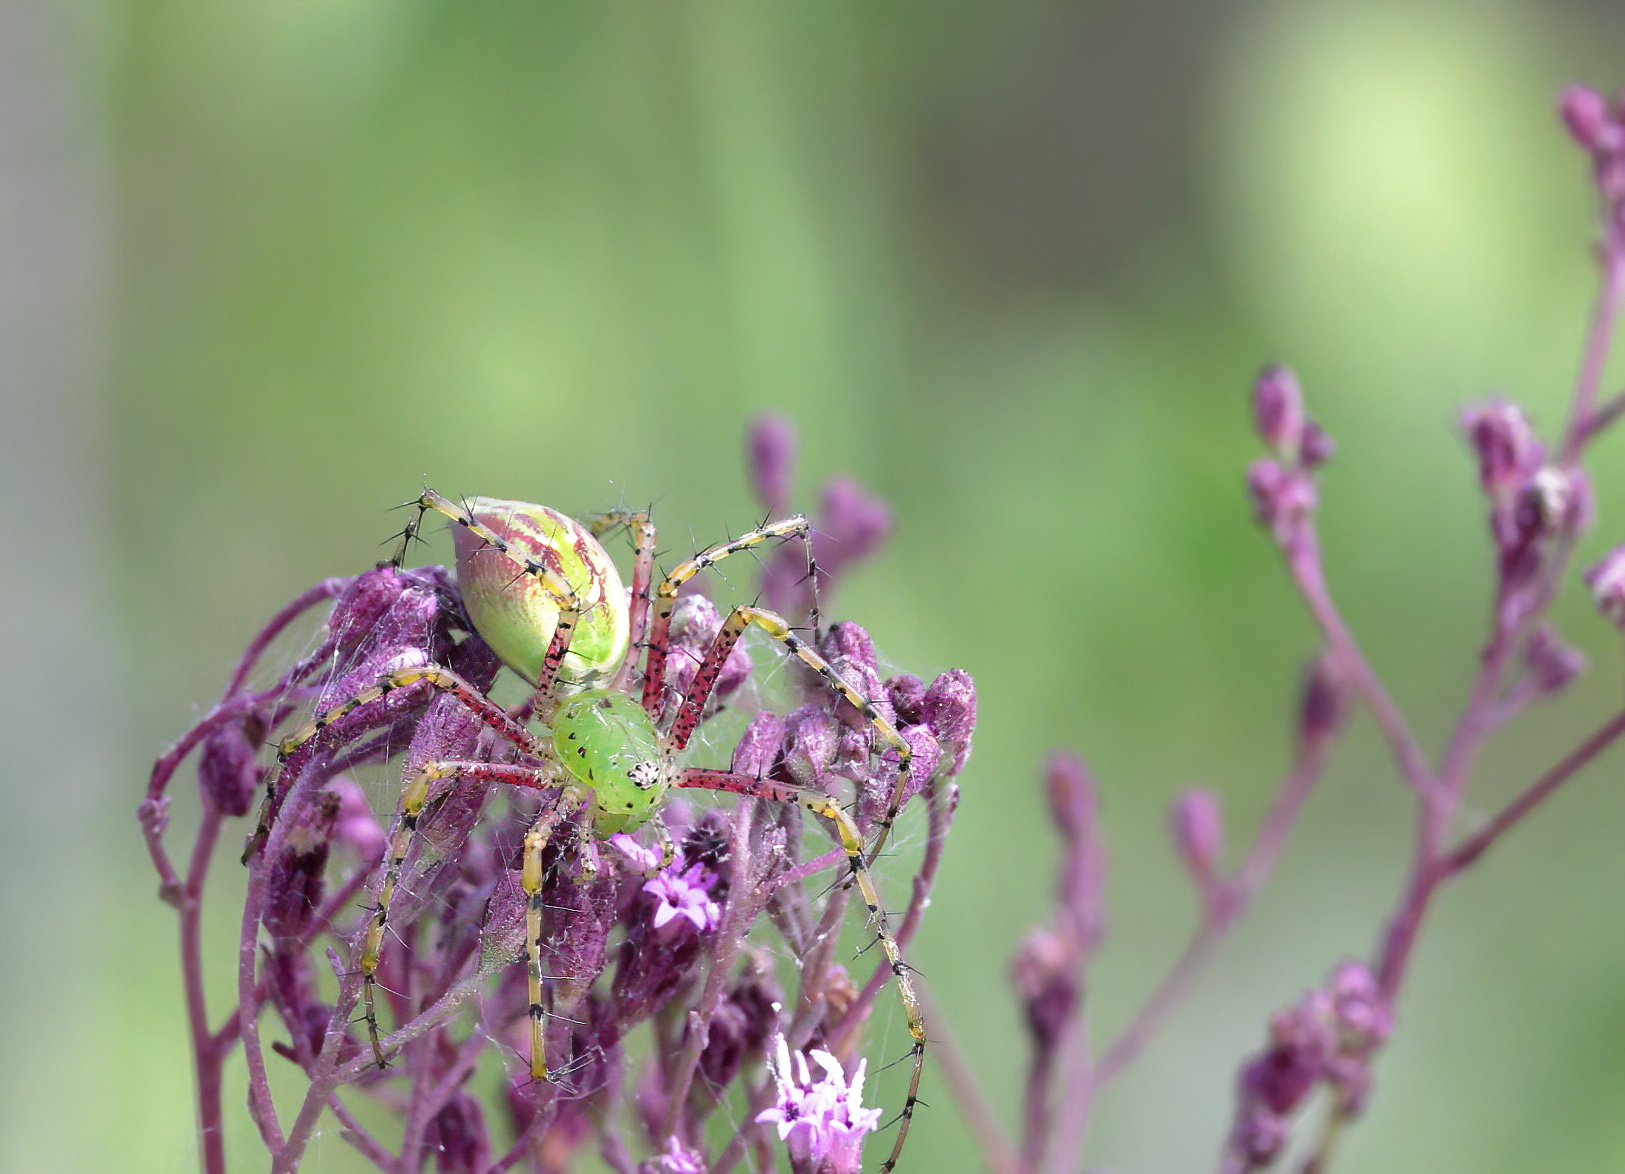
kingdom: Animalia
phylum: Arthropoda
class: Arachnida
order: Araneae
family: Oxyopidae
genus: Peucetia
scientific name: Peucetia viridans
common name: Lynx spiders
